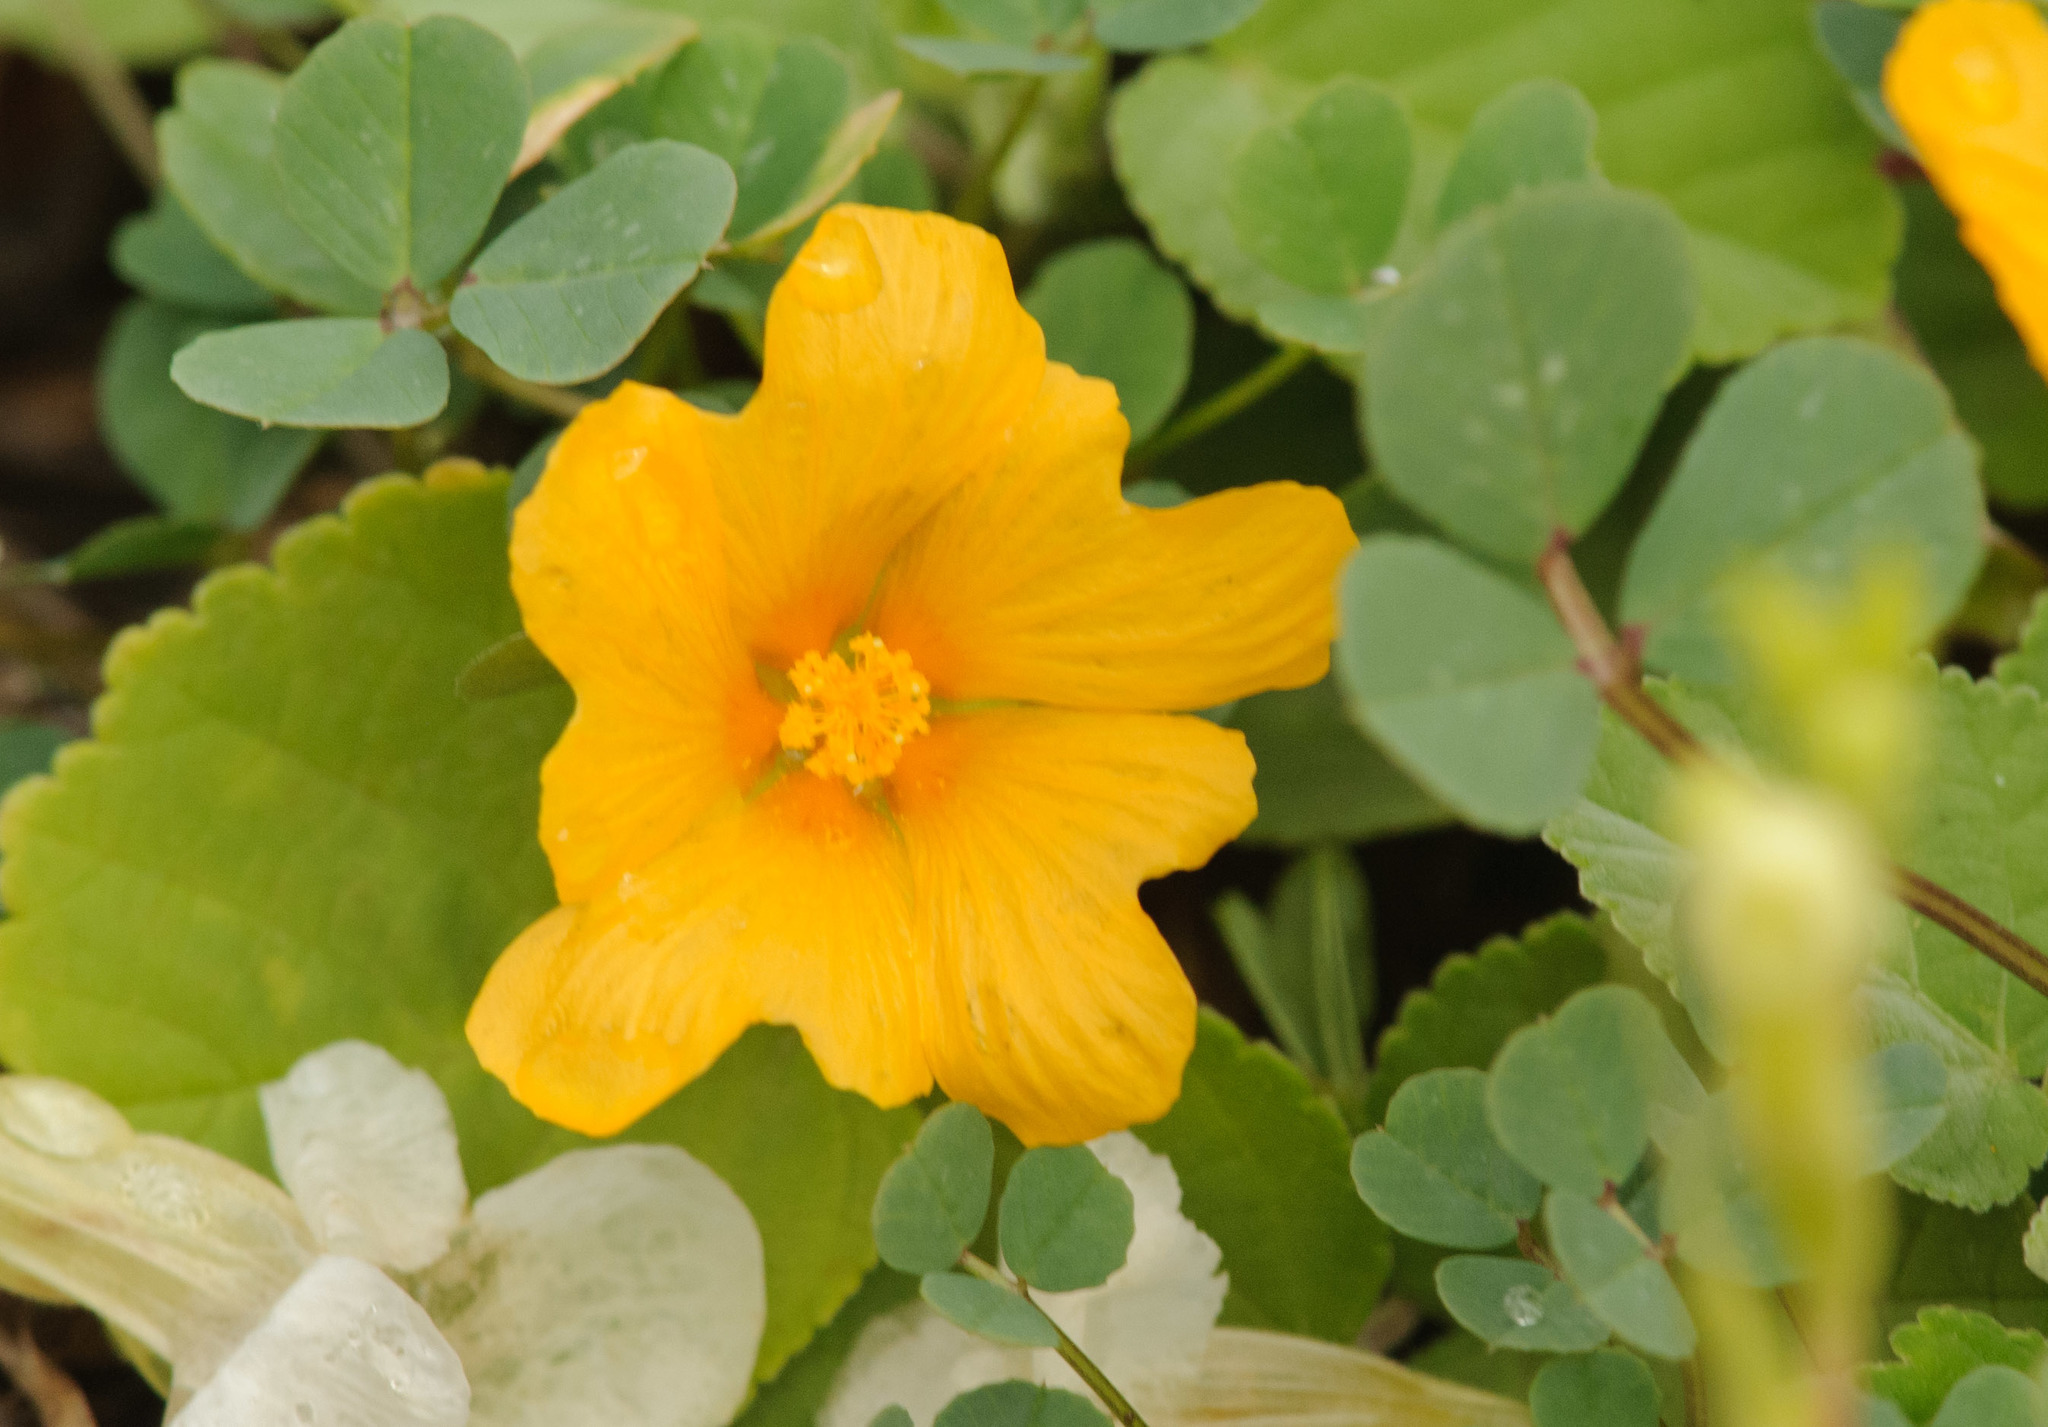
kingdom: Plantae
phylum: Tracheophyta
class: Magnoliopsida
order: Malvales
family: Malvaceae
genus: Sida
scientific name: Sida fallax
